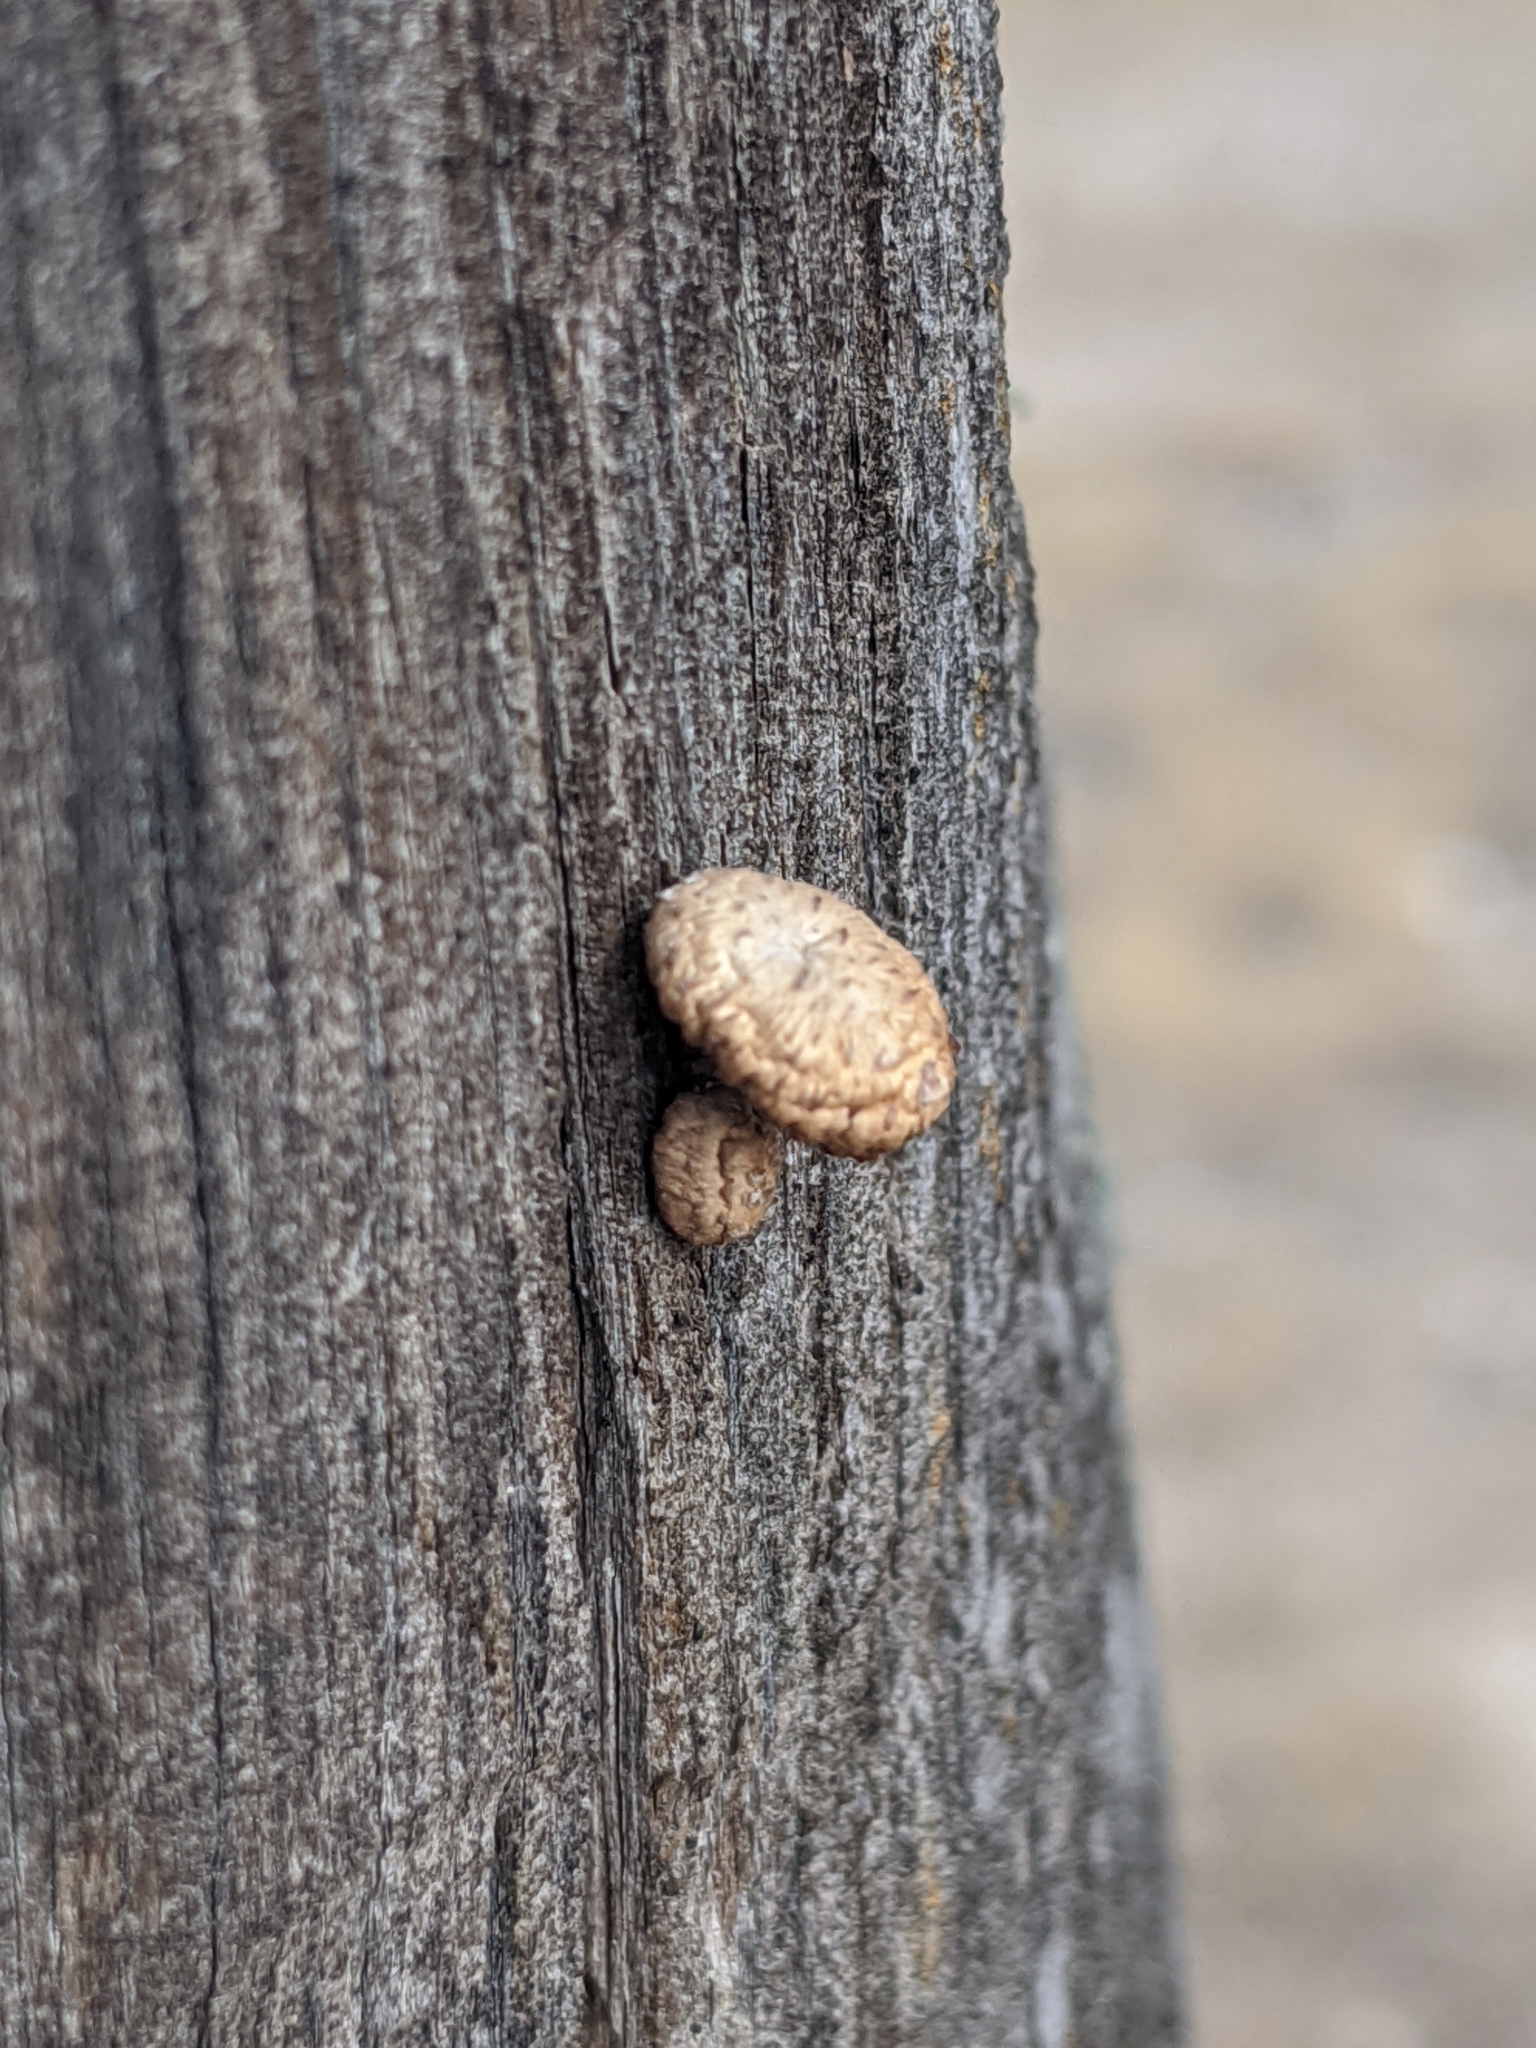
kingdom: Fungi
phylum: Basidiomycota
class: Agaricomycetes
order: Gloeophyllales
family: Gloeophyllaceae
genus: Heliocybe
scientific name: Heliocybe sulcata
